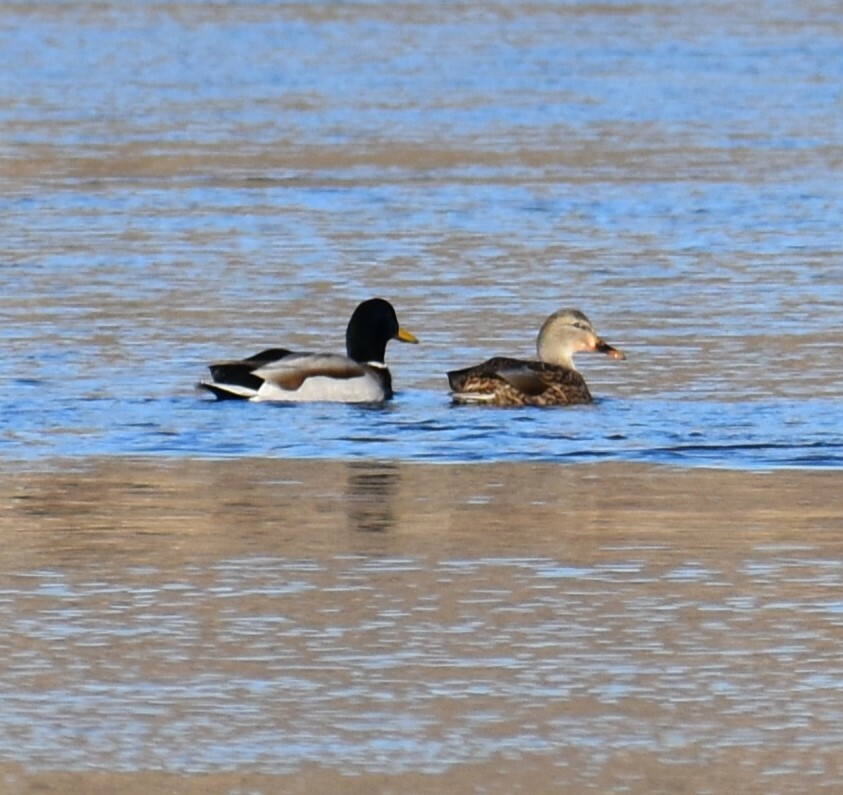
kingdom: Animalia
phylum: Chordata
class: Aves
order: Anseriformes
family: Anatidae
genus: Anas
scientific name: Anas platyrhynchos
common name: Mallard
